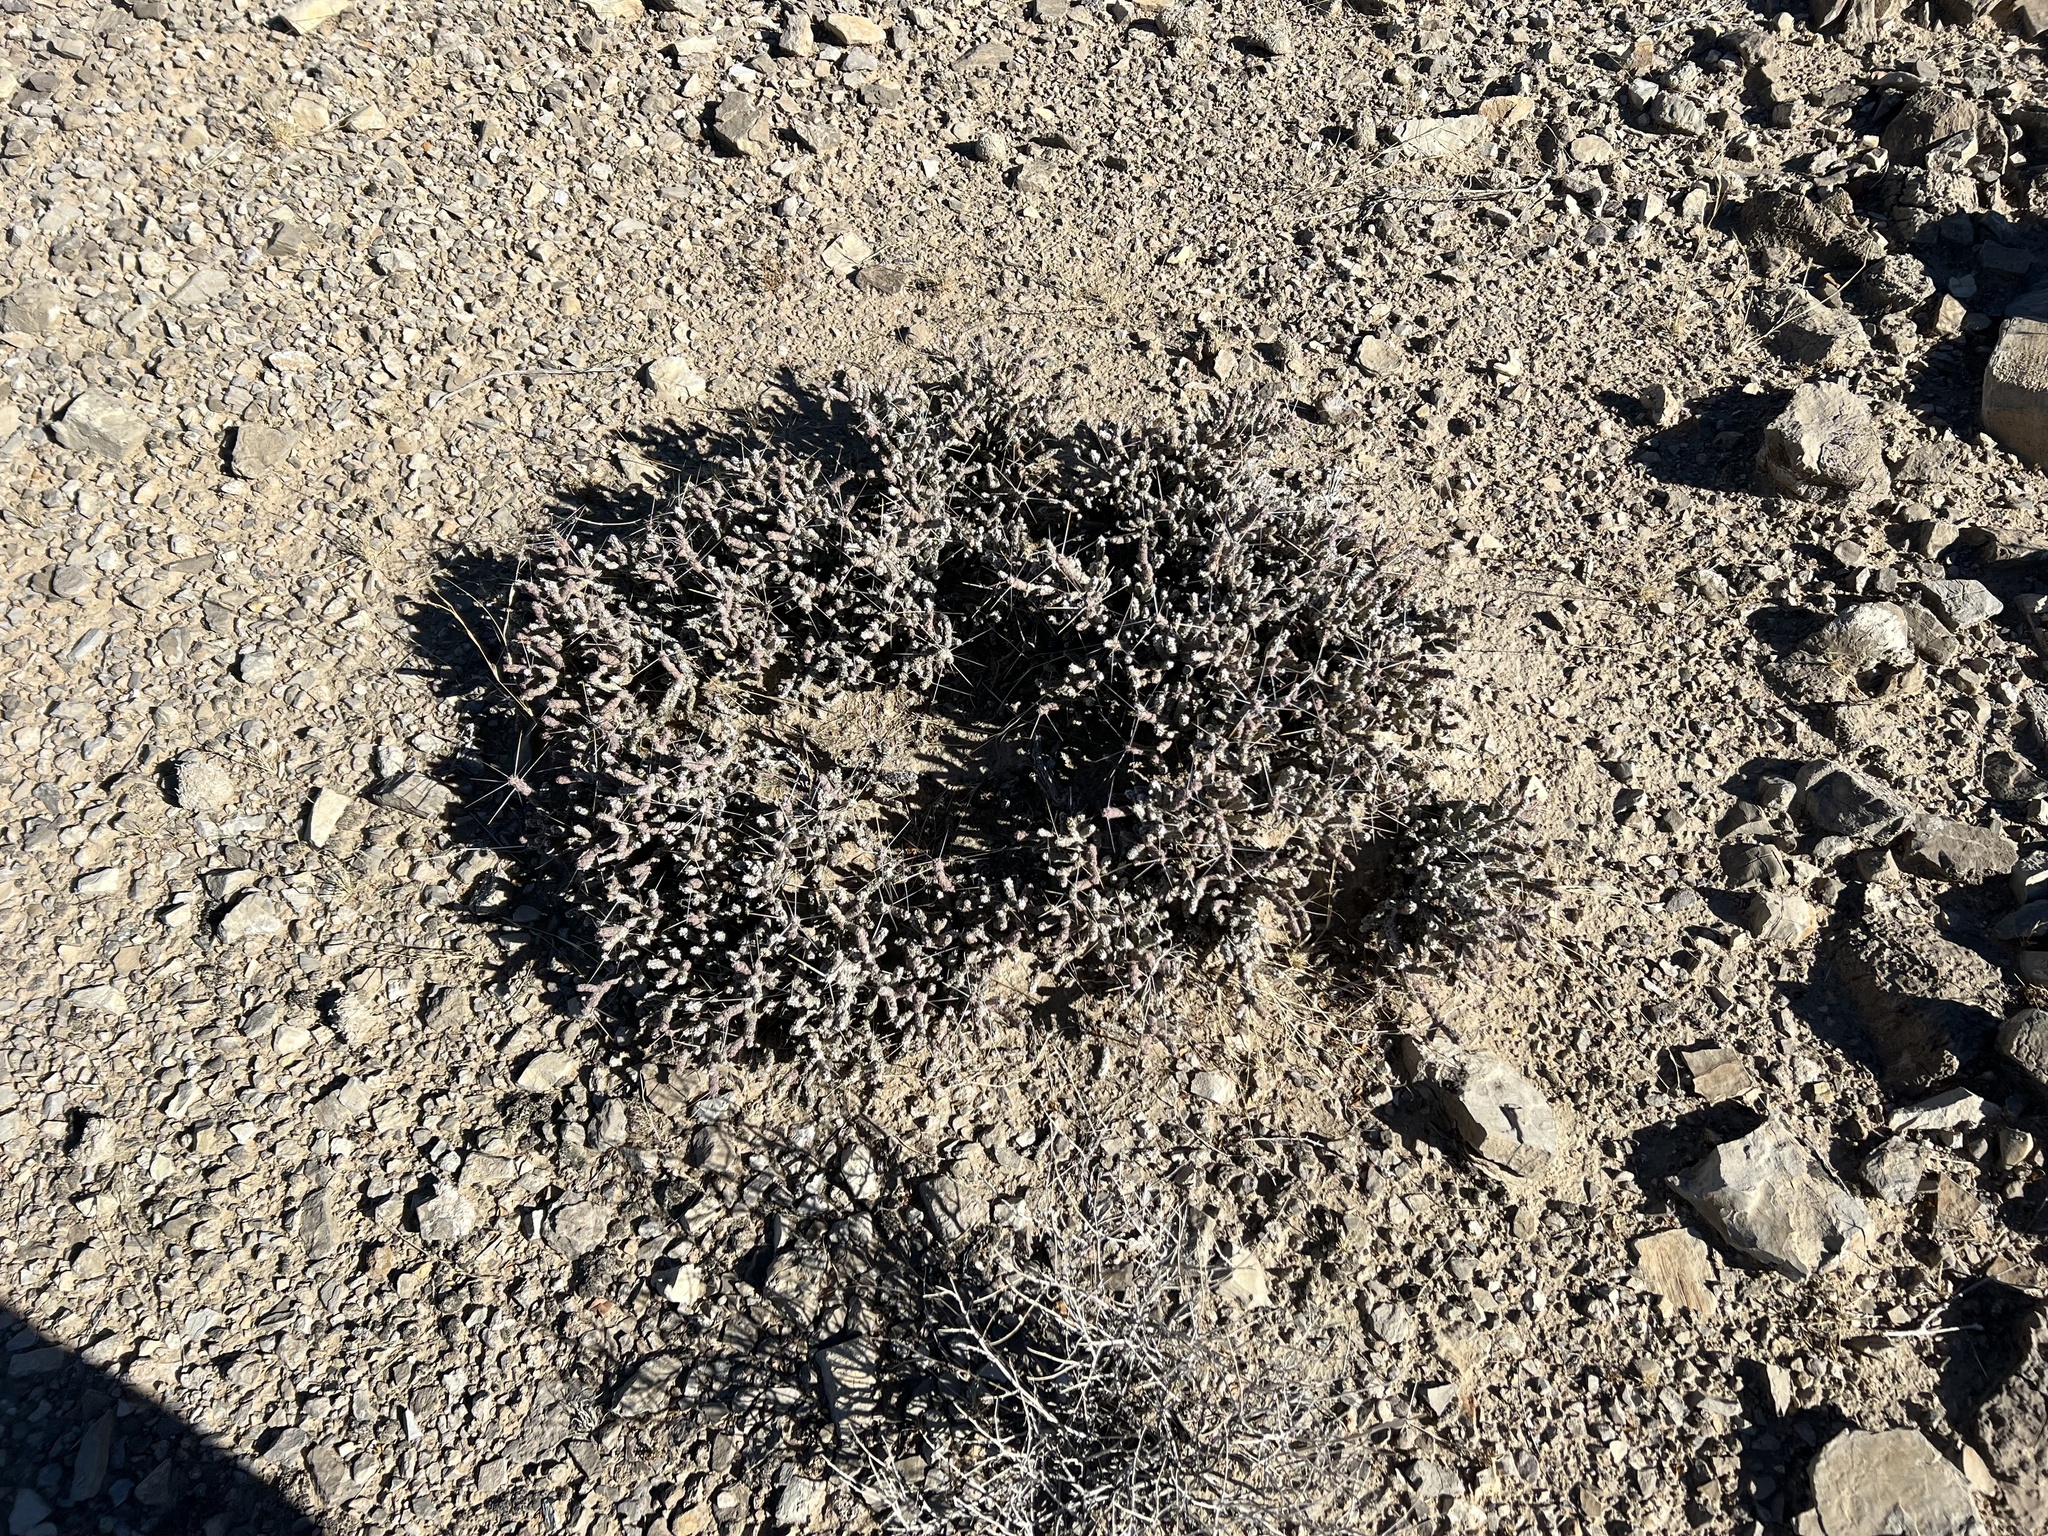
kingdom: Plantae
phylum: Tracheophyta
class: Magnoliopsida
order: Caryophyllales
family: Cactaceae
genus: Cylindropuntia
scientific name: Cylindropuntia ramosissima
